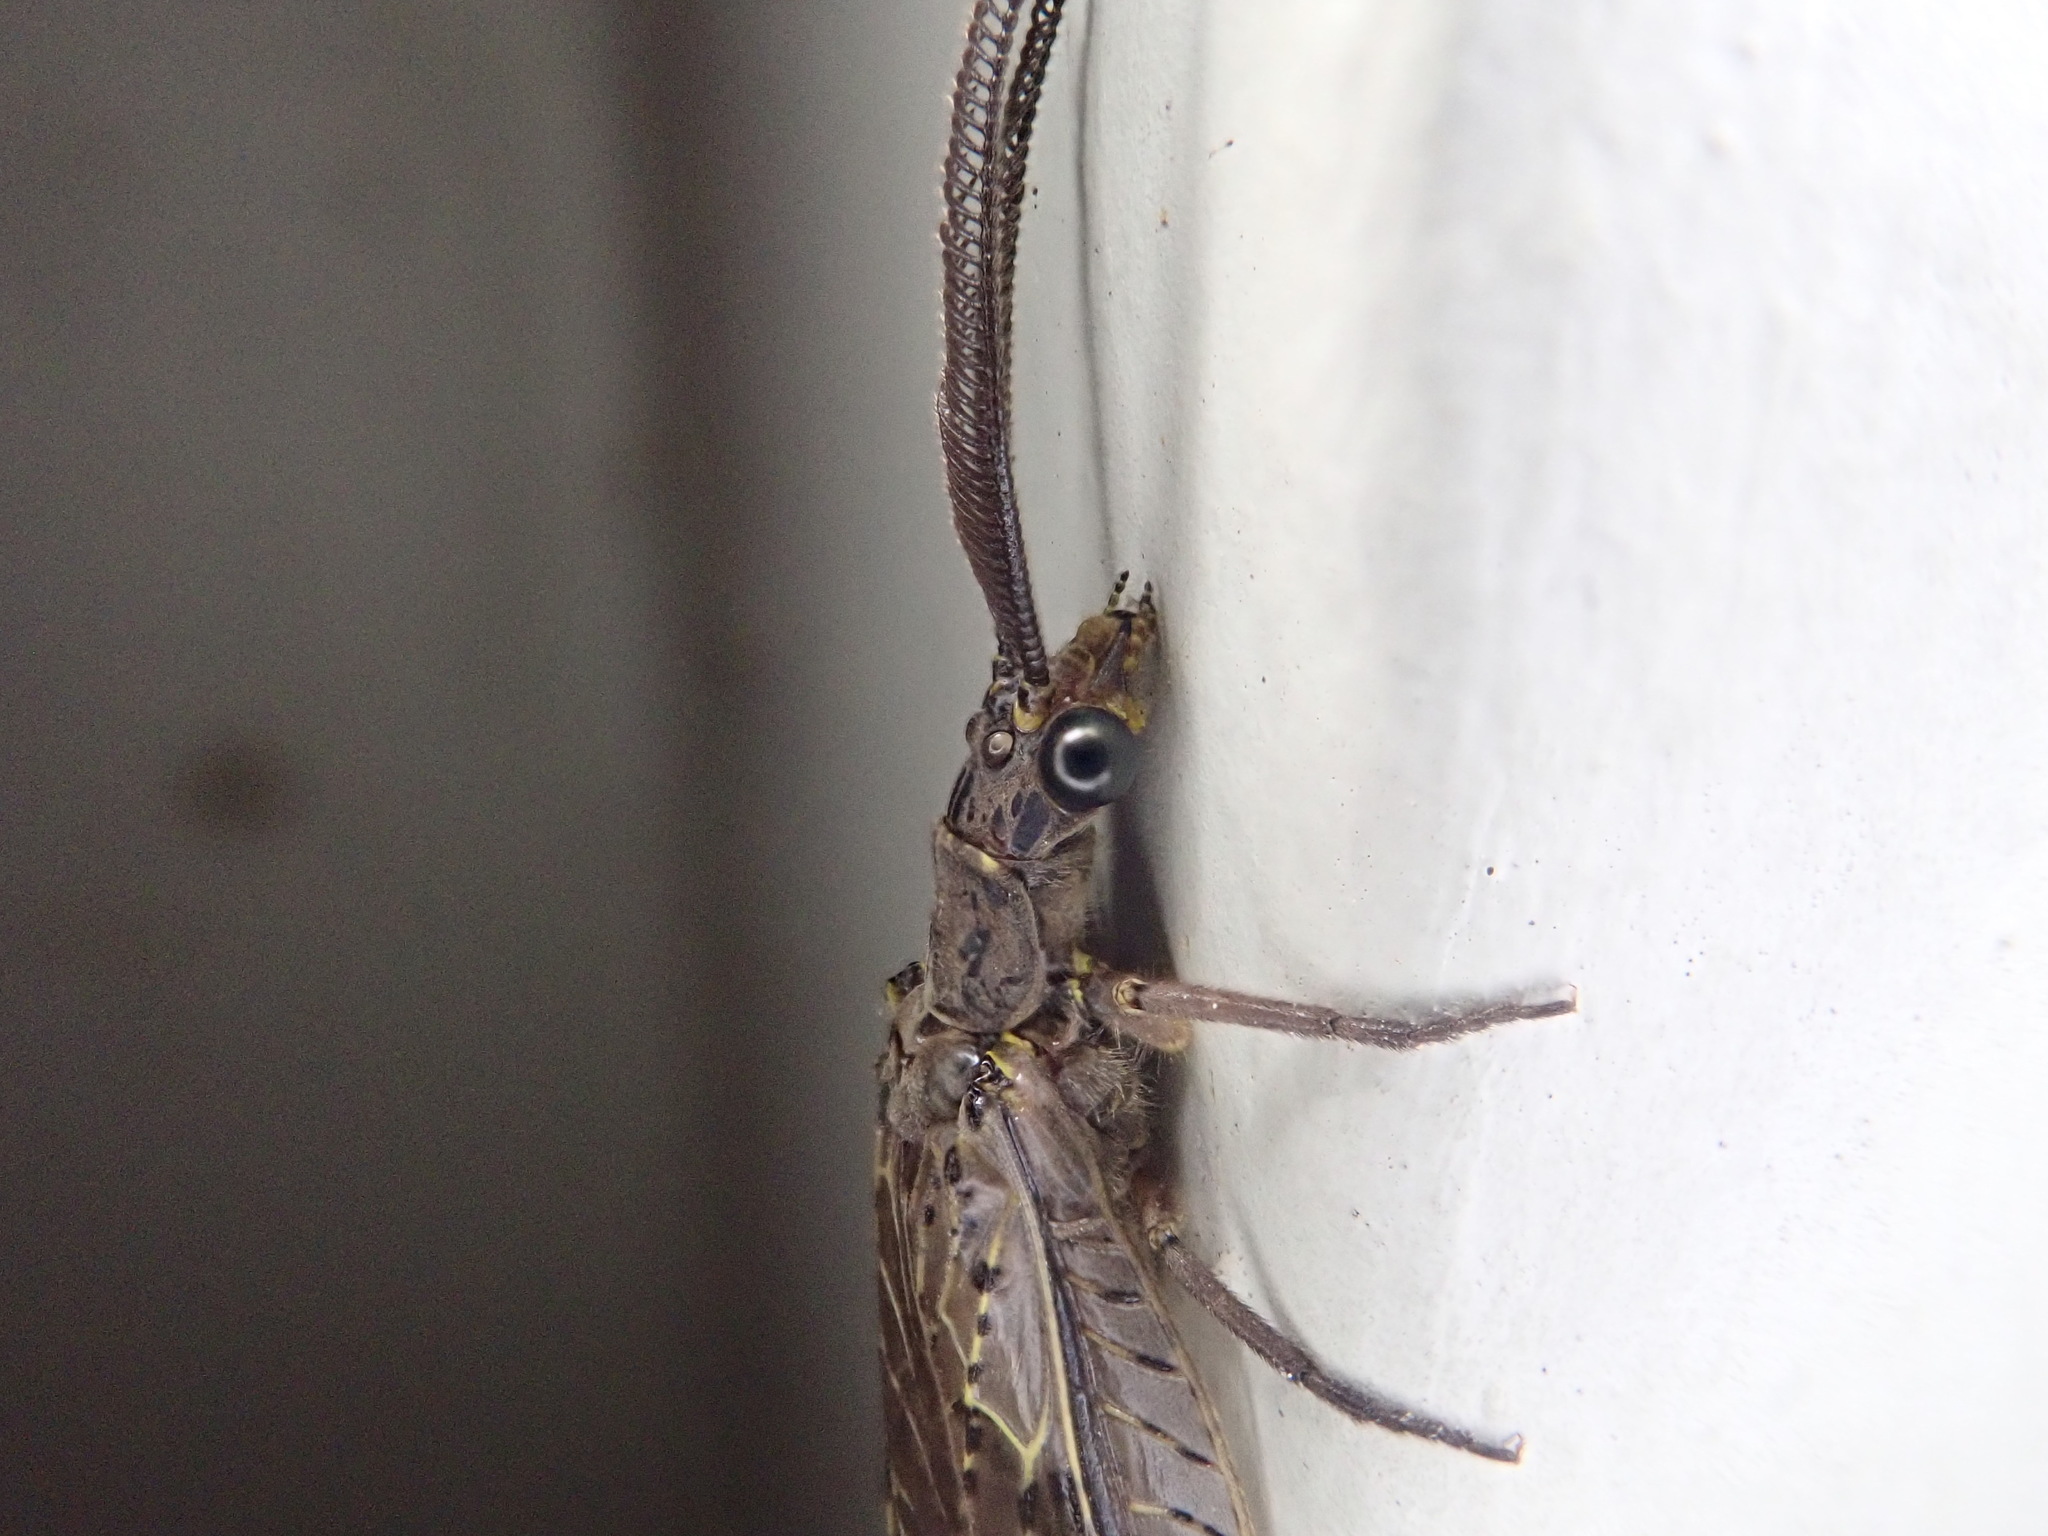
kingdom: Animalia
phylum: Arthropoda
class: Insecta
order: Megaloptera
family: Corydalidae
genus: Chauliodes
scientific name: Chauliodes rastricornis
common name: Spring fishfly
